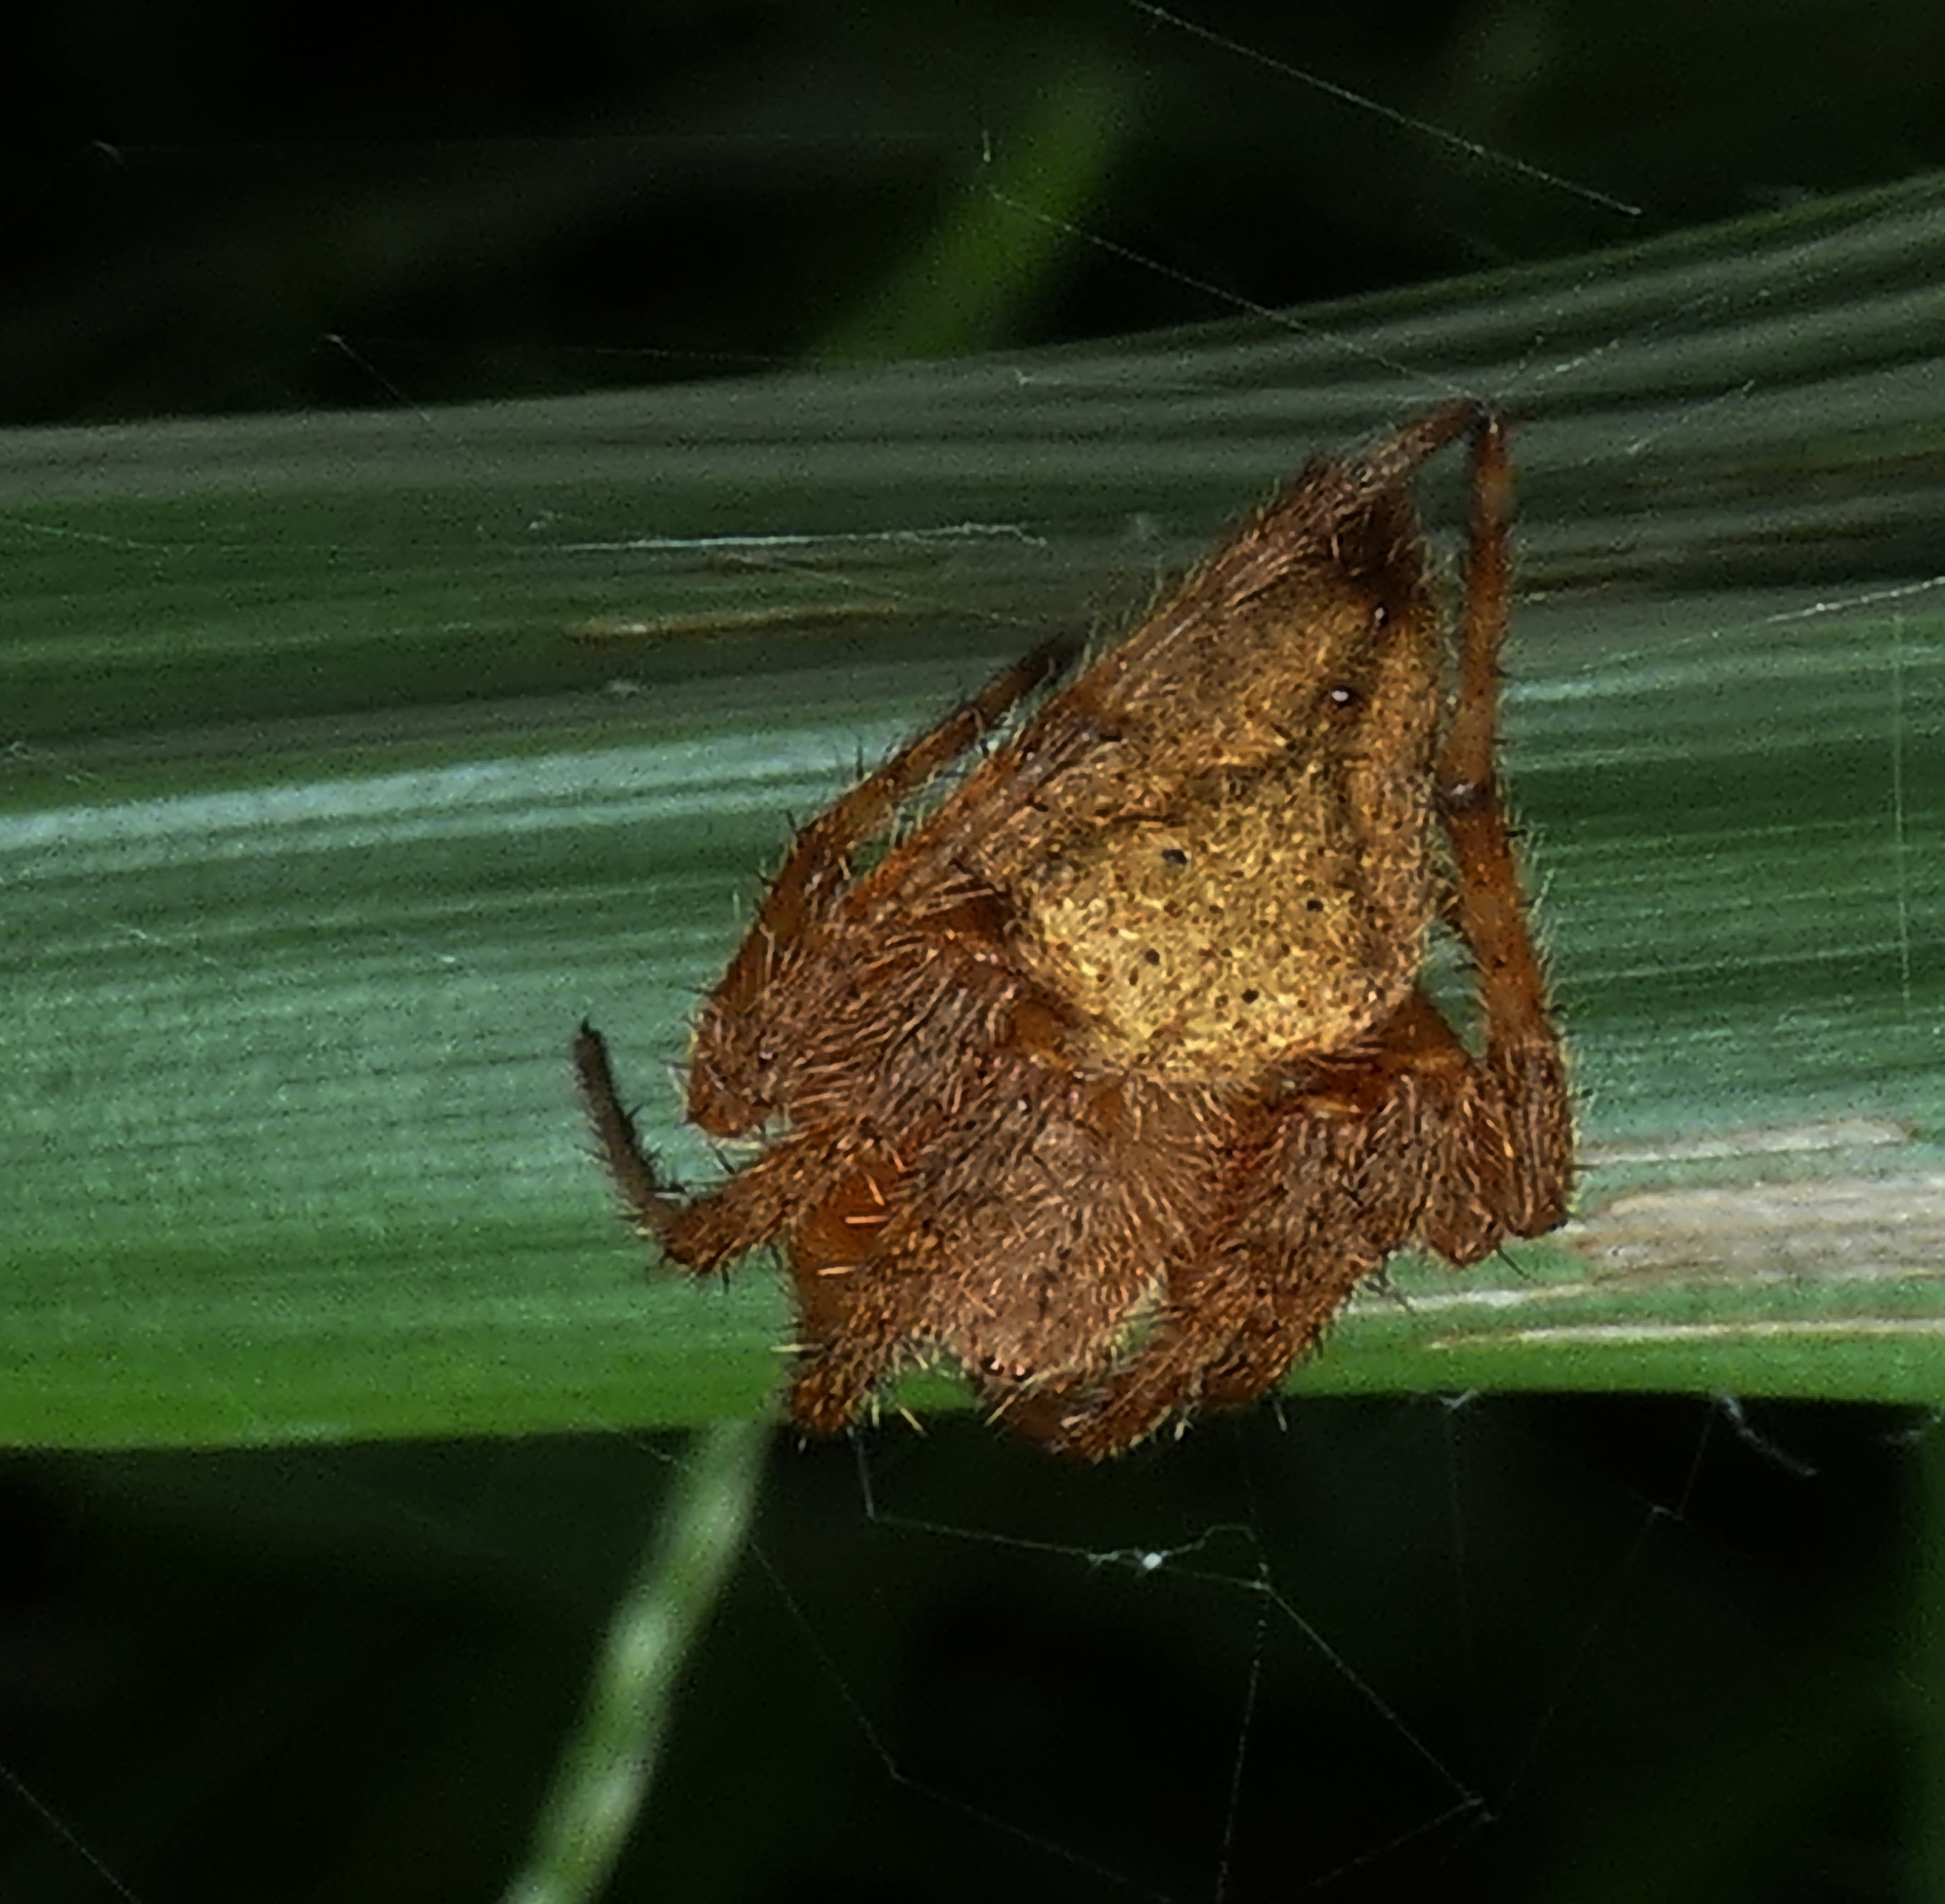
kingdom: Animalia
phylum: Arthropoda
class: Arachnida
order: Araneae
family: Araneidae
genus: Eriophora
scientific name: Eriophora edax
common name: Orb weavers
